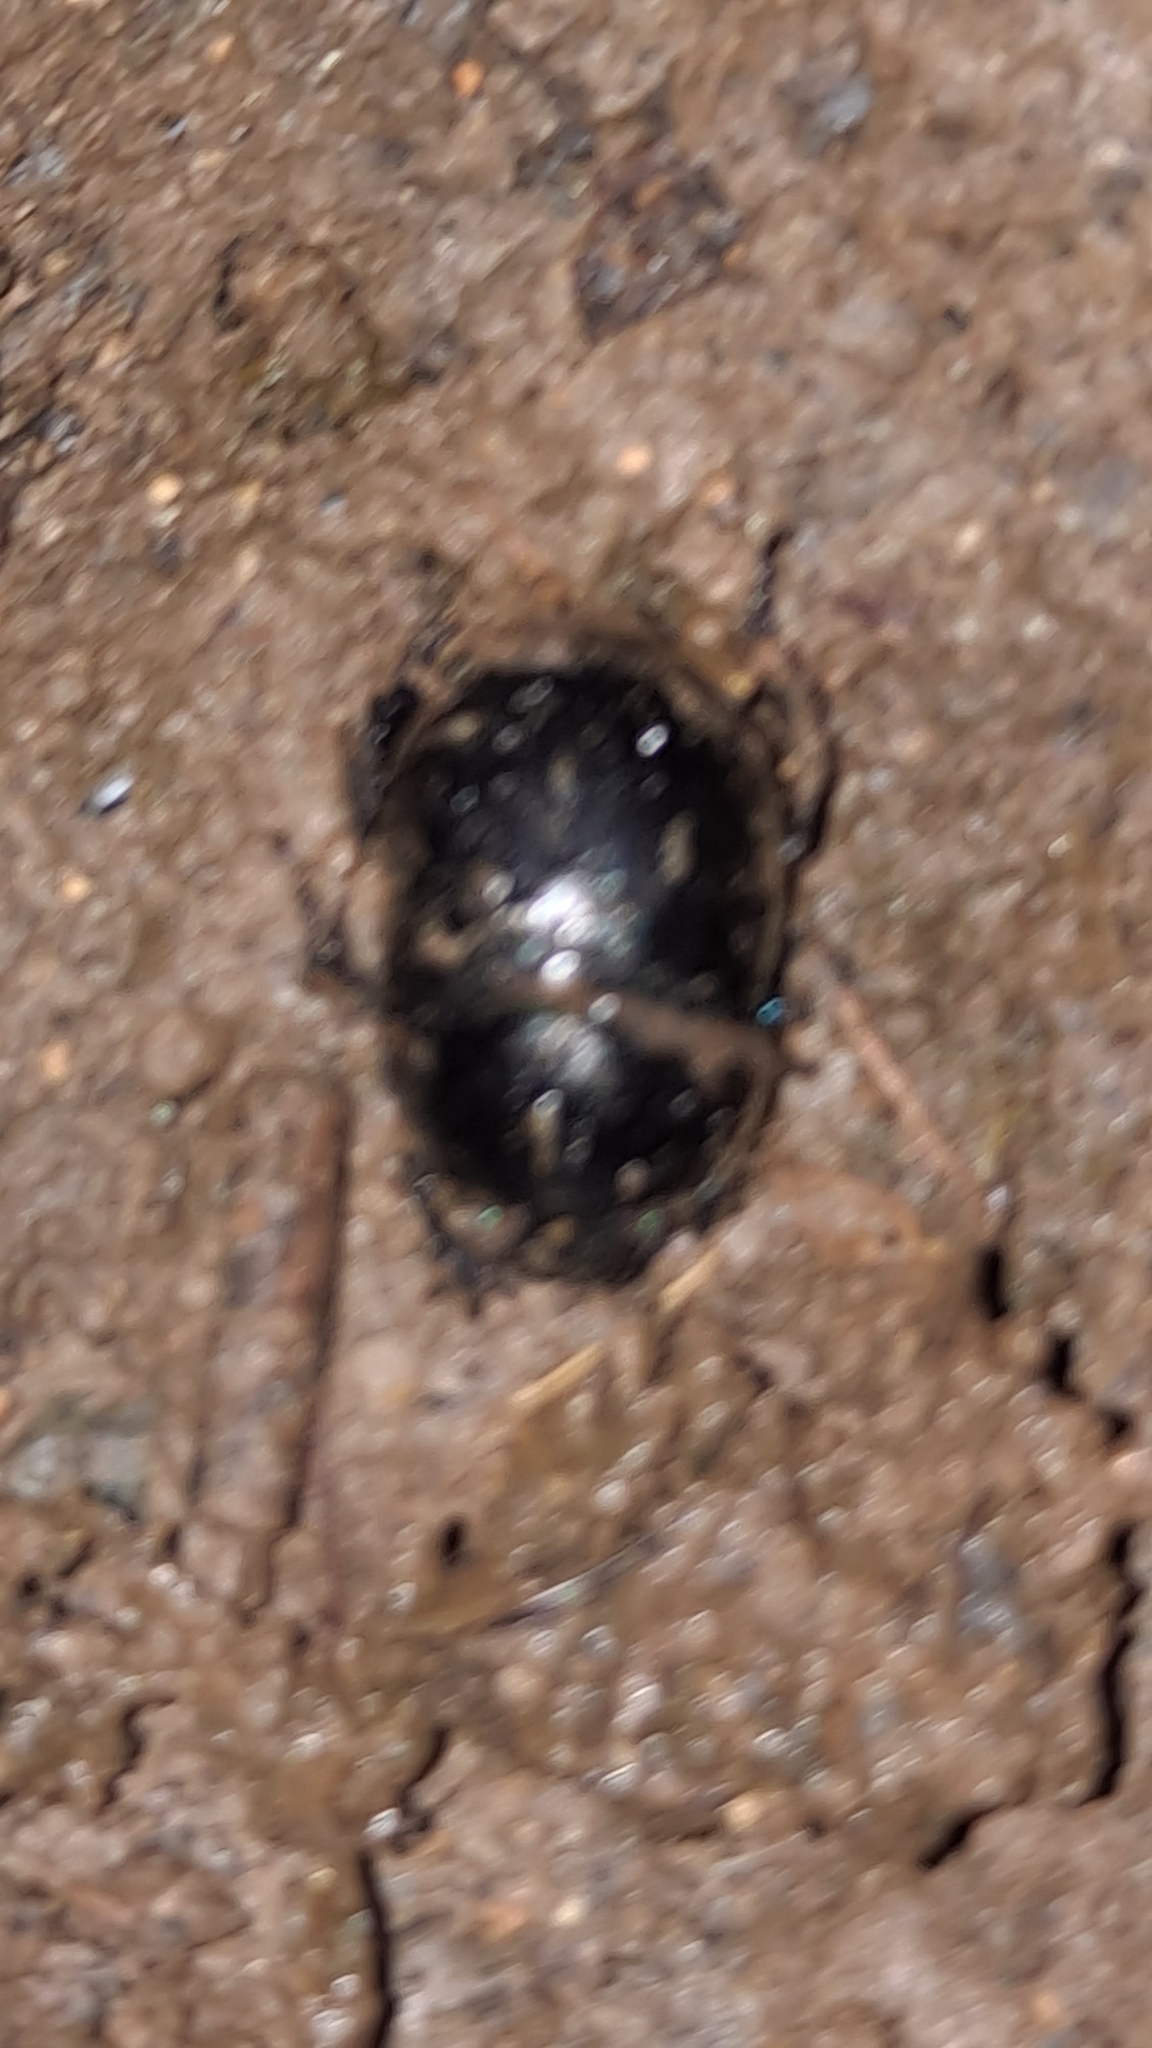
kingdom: Animalia
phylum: Arthropoda
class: Insecta
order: Coleoptera
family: Geotrupidae
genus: Anoplotrupes
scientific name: Anoplotrupes stercorosus
